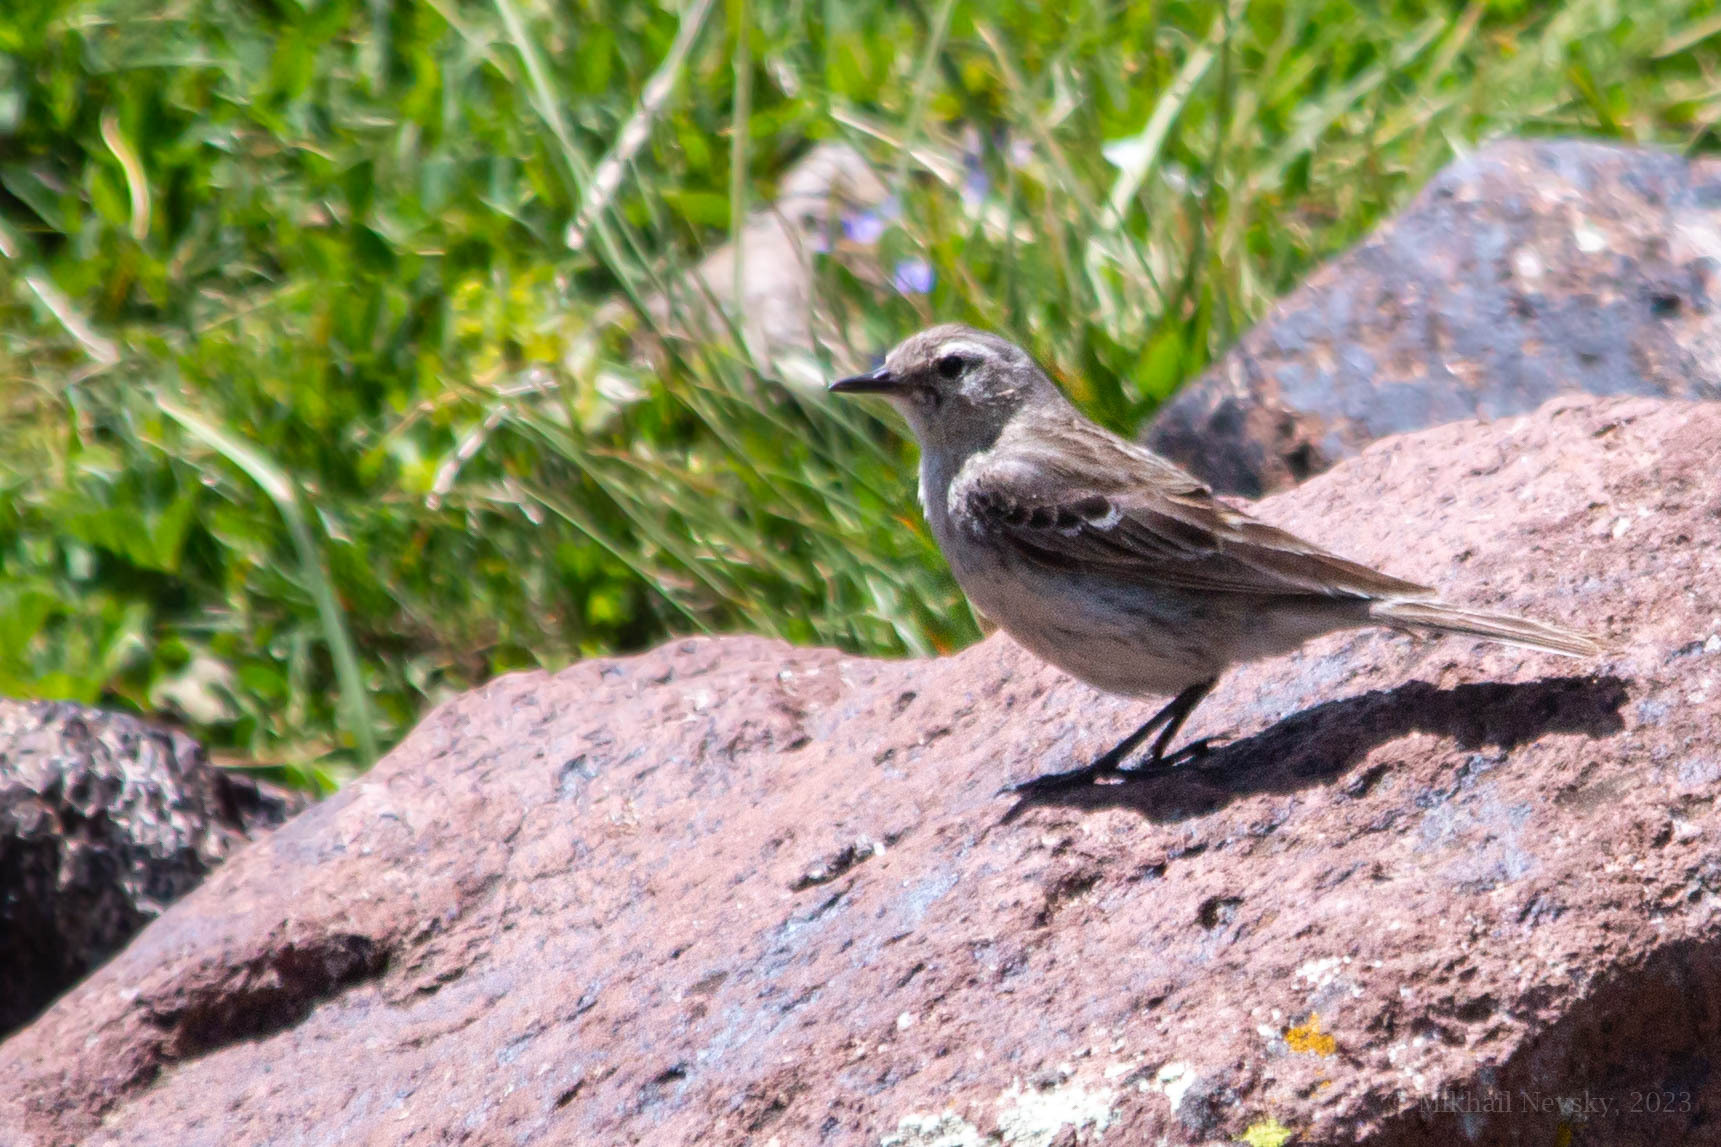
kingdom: Animalia
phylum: Chordata
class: Aves
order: Passeriformes
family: Motacillidae
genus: Anthus
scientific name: Anthus spinoletta
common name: Water pipit
